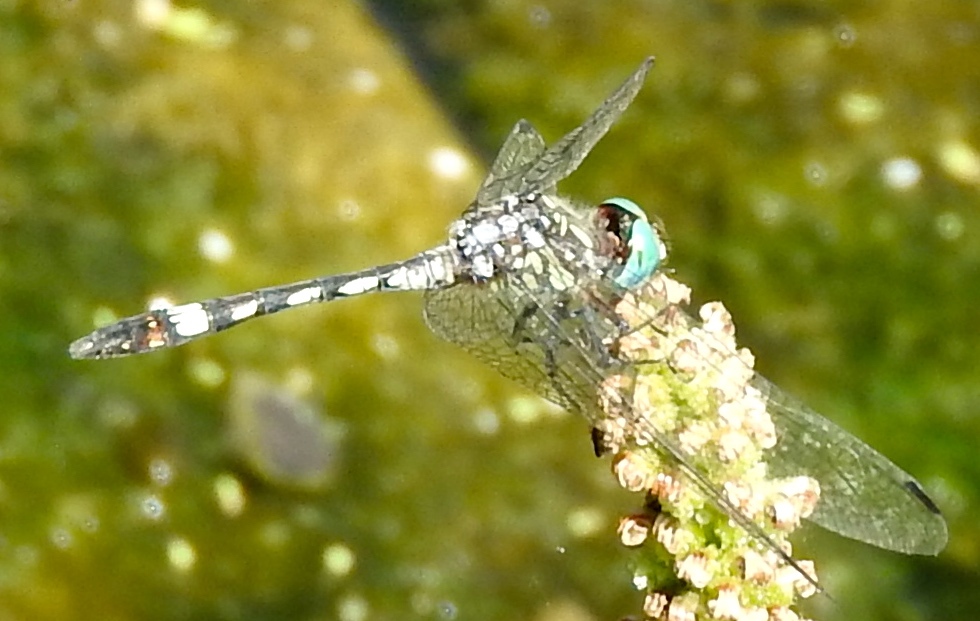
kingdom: Animalia
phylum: Arthropoda
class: Insecta
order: Odonata
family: Libellulidae
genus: Micrathyria
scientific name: Micrathyria hagenii
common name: Thornbush dasher
